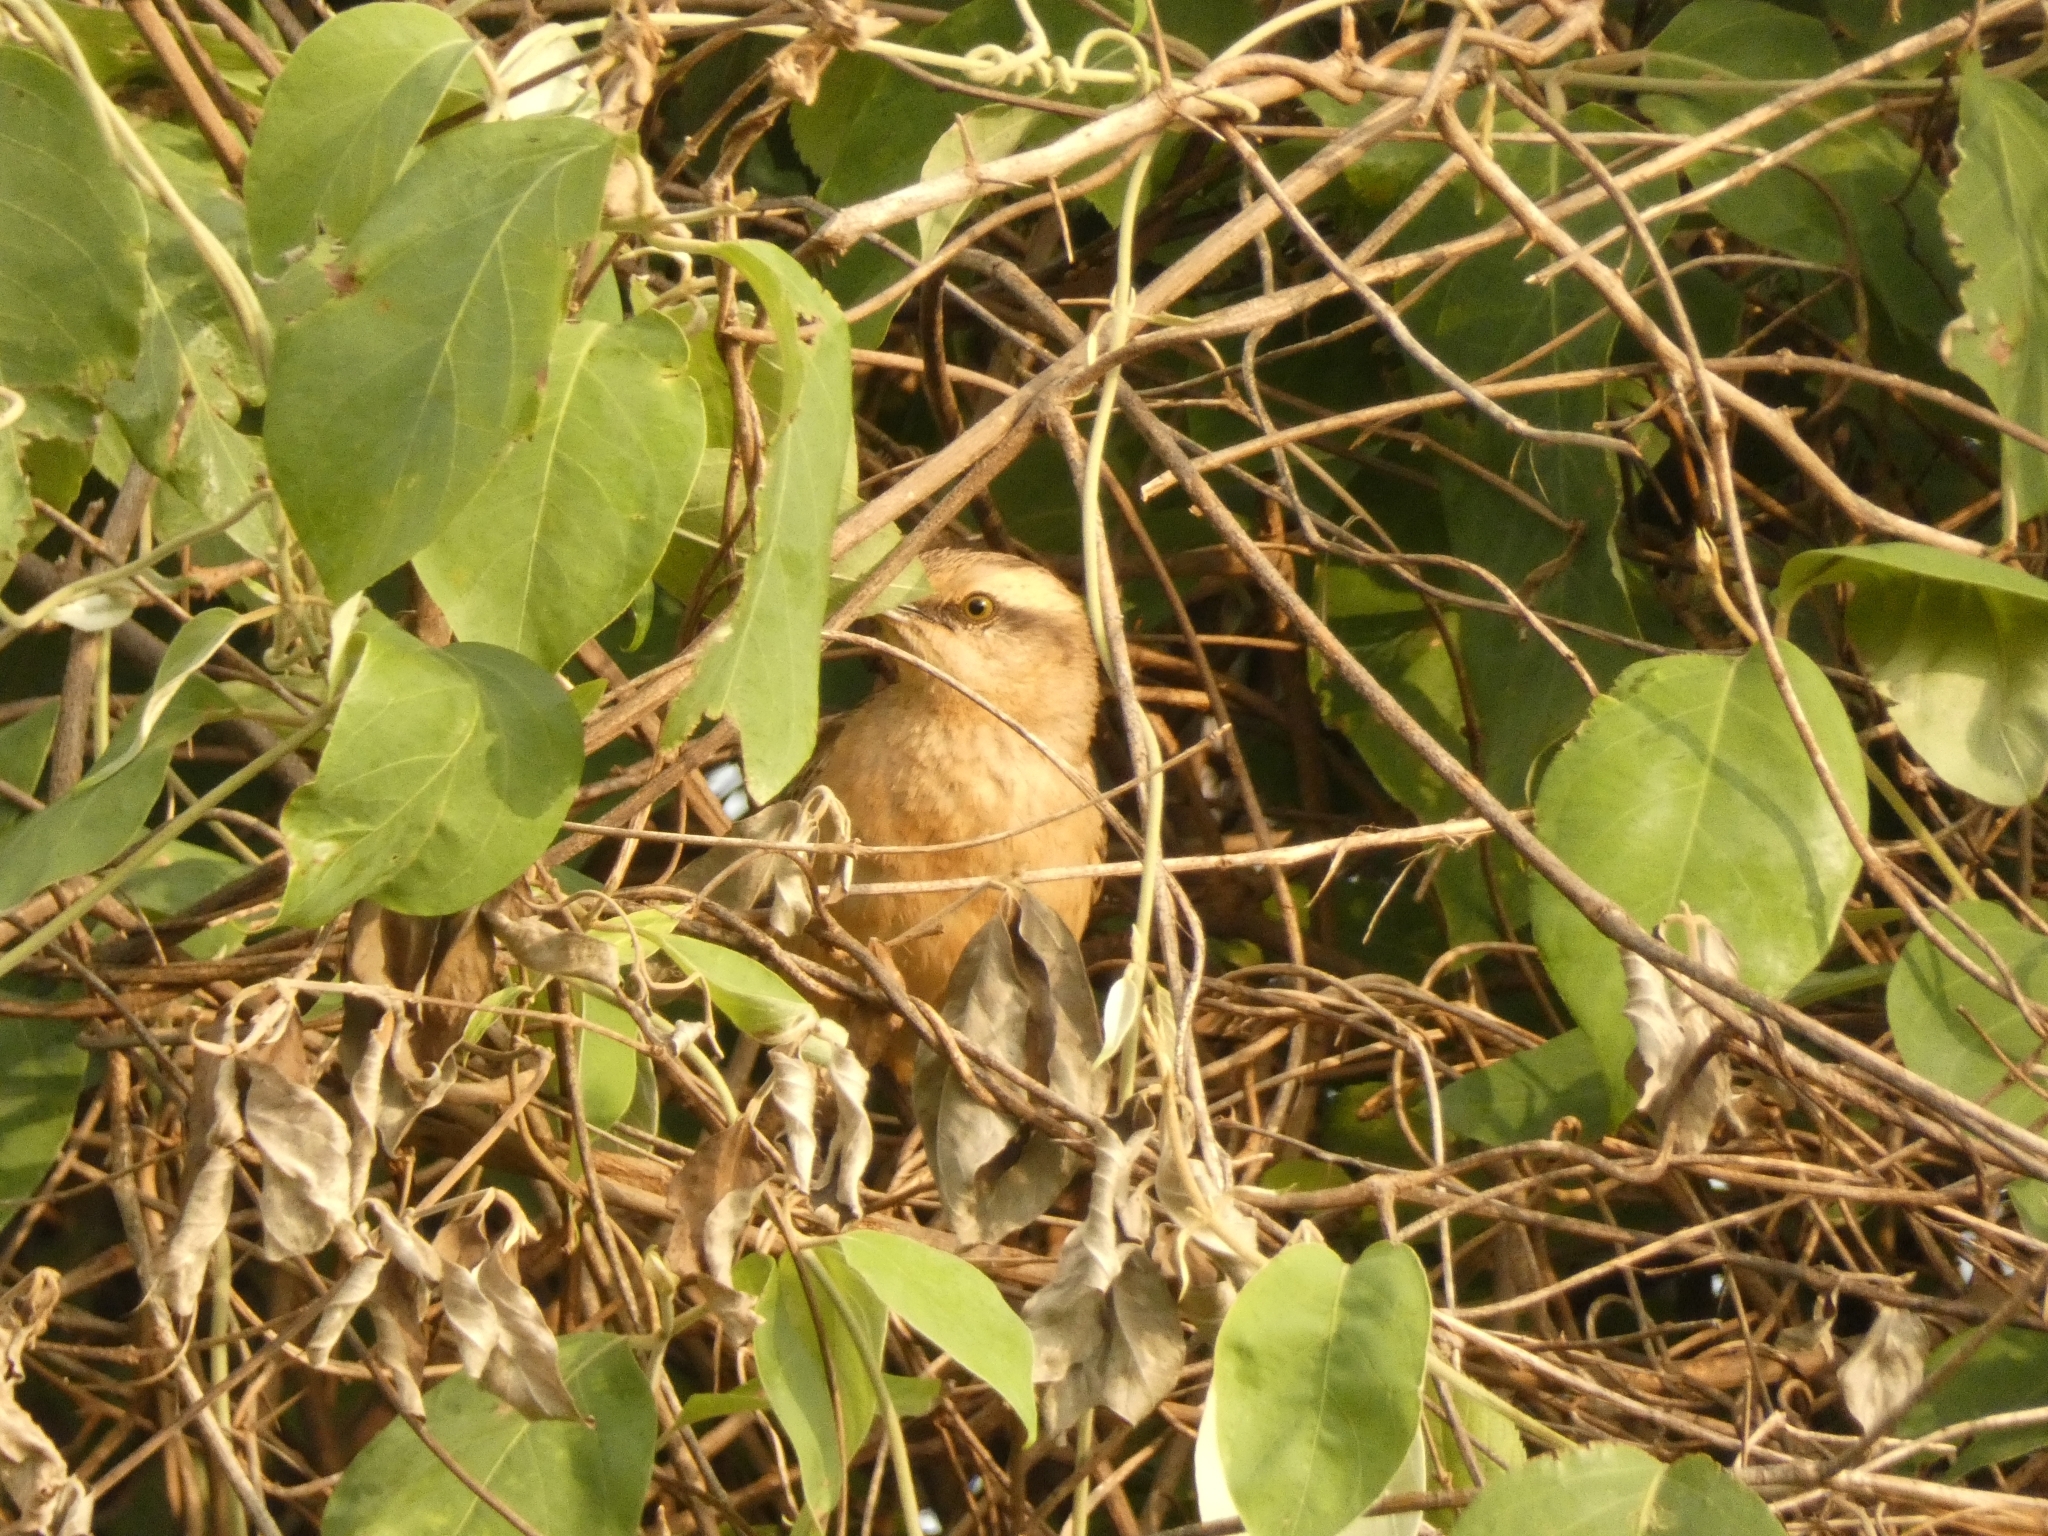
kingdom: Animalia
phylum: Chordata
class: Aves
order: Passeriformes
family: Mimidae
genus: Mimus
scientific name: Mimus saturninus
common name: Chalk-browed mockingbird
